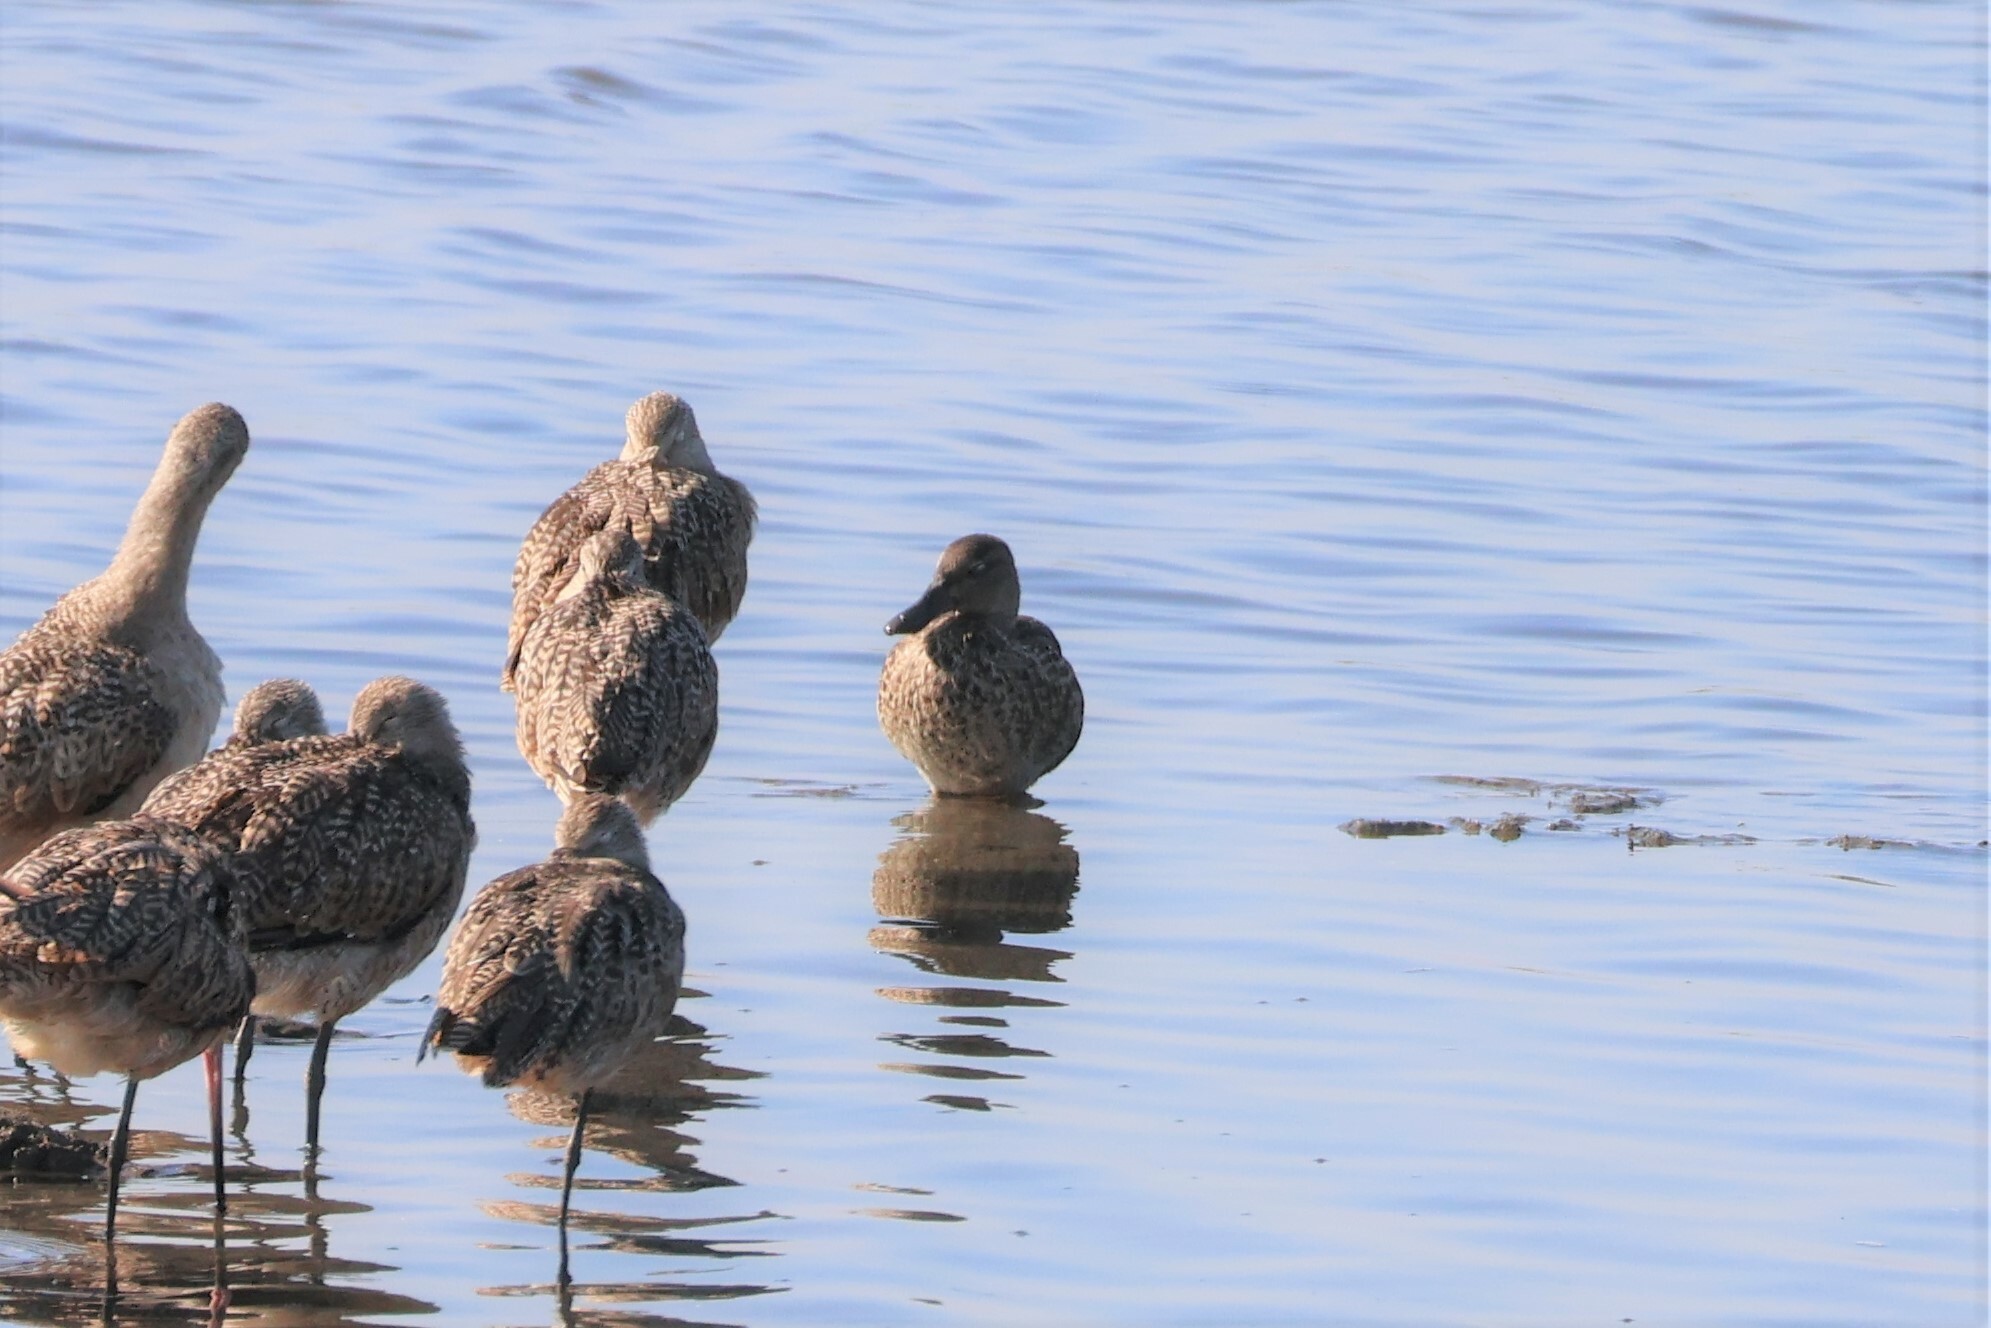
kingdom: Animalia
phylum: Chordata
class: Aves
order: Anseriformes
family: Anatidae
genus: Spatula
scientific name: Spatula cyanoptera
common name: Cinnamon teal
